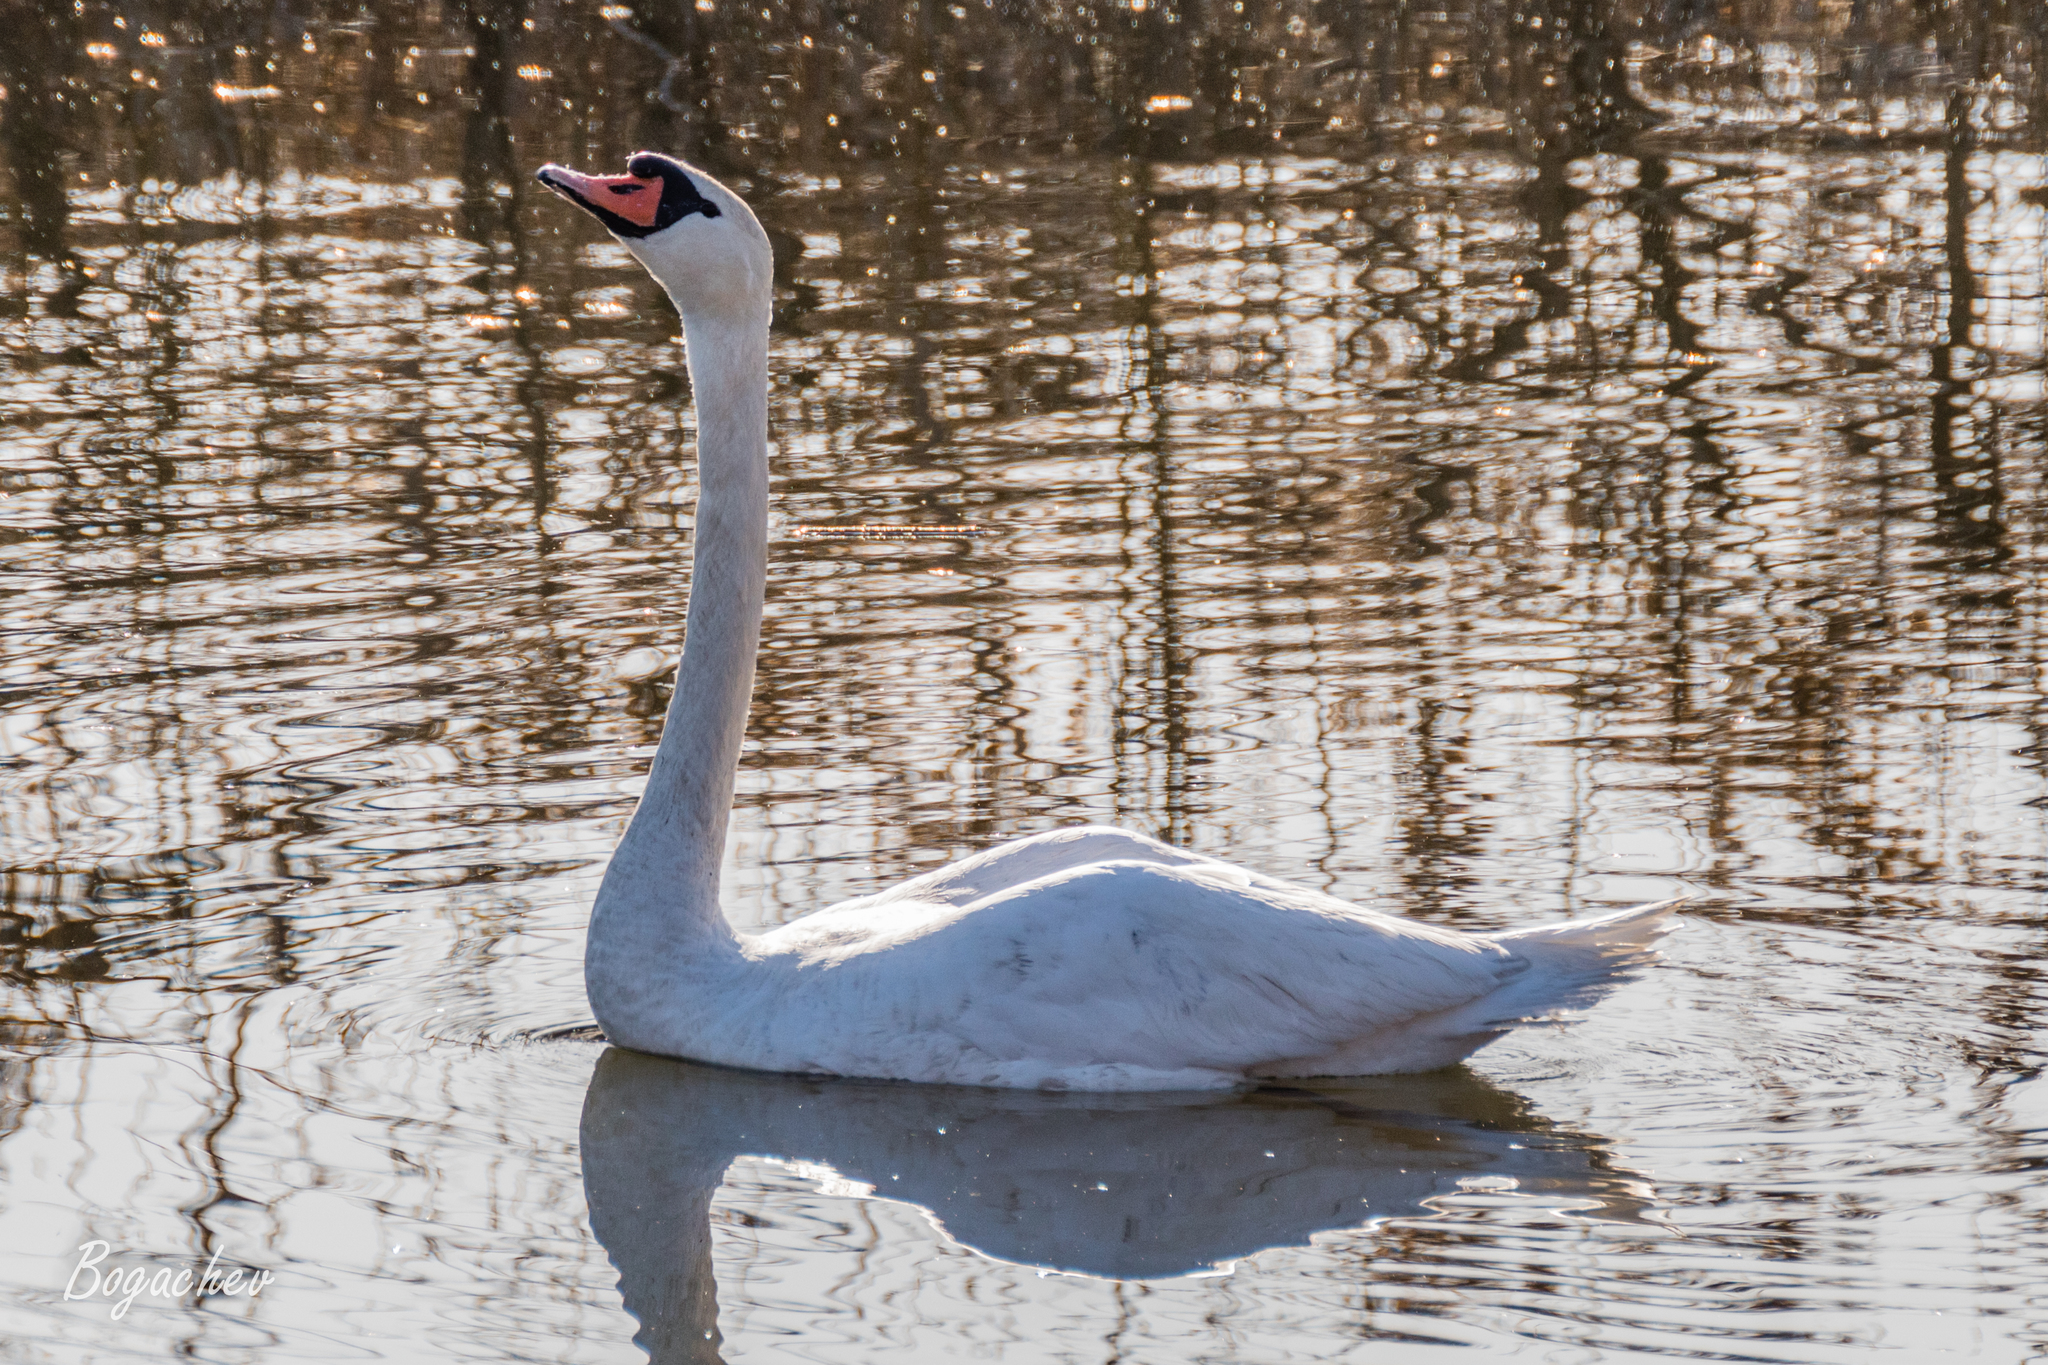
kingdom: Animalia
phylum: Chordata
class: Aves
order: Anseriformes
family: Anatidae
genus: Cygnus
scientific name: Cygnus olor
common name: Mute swan
